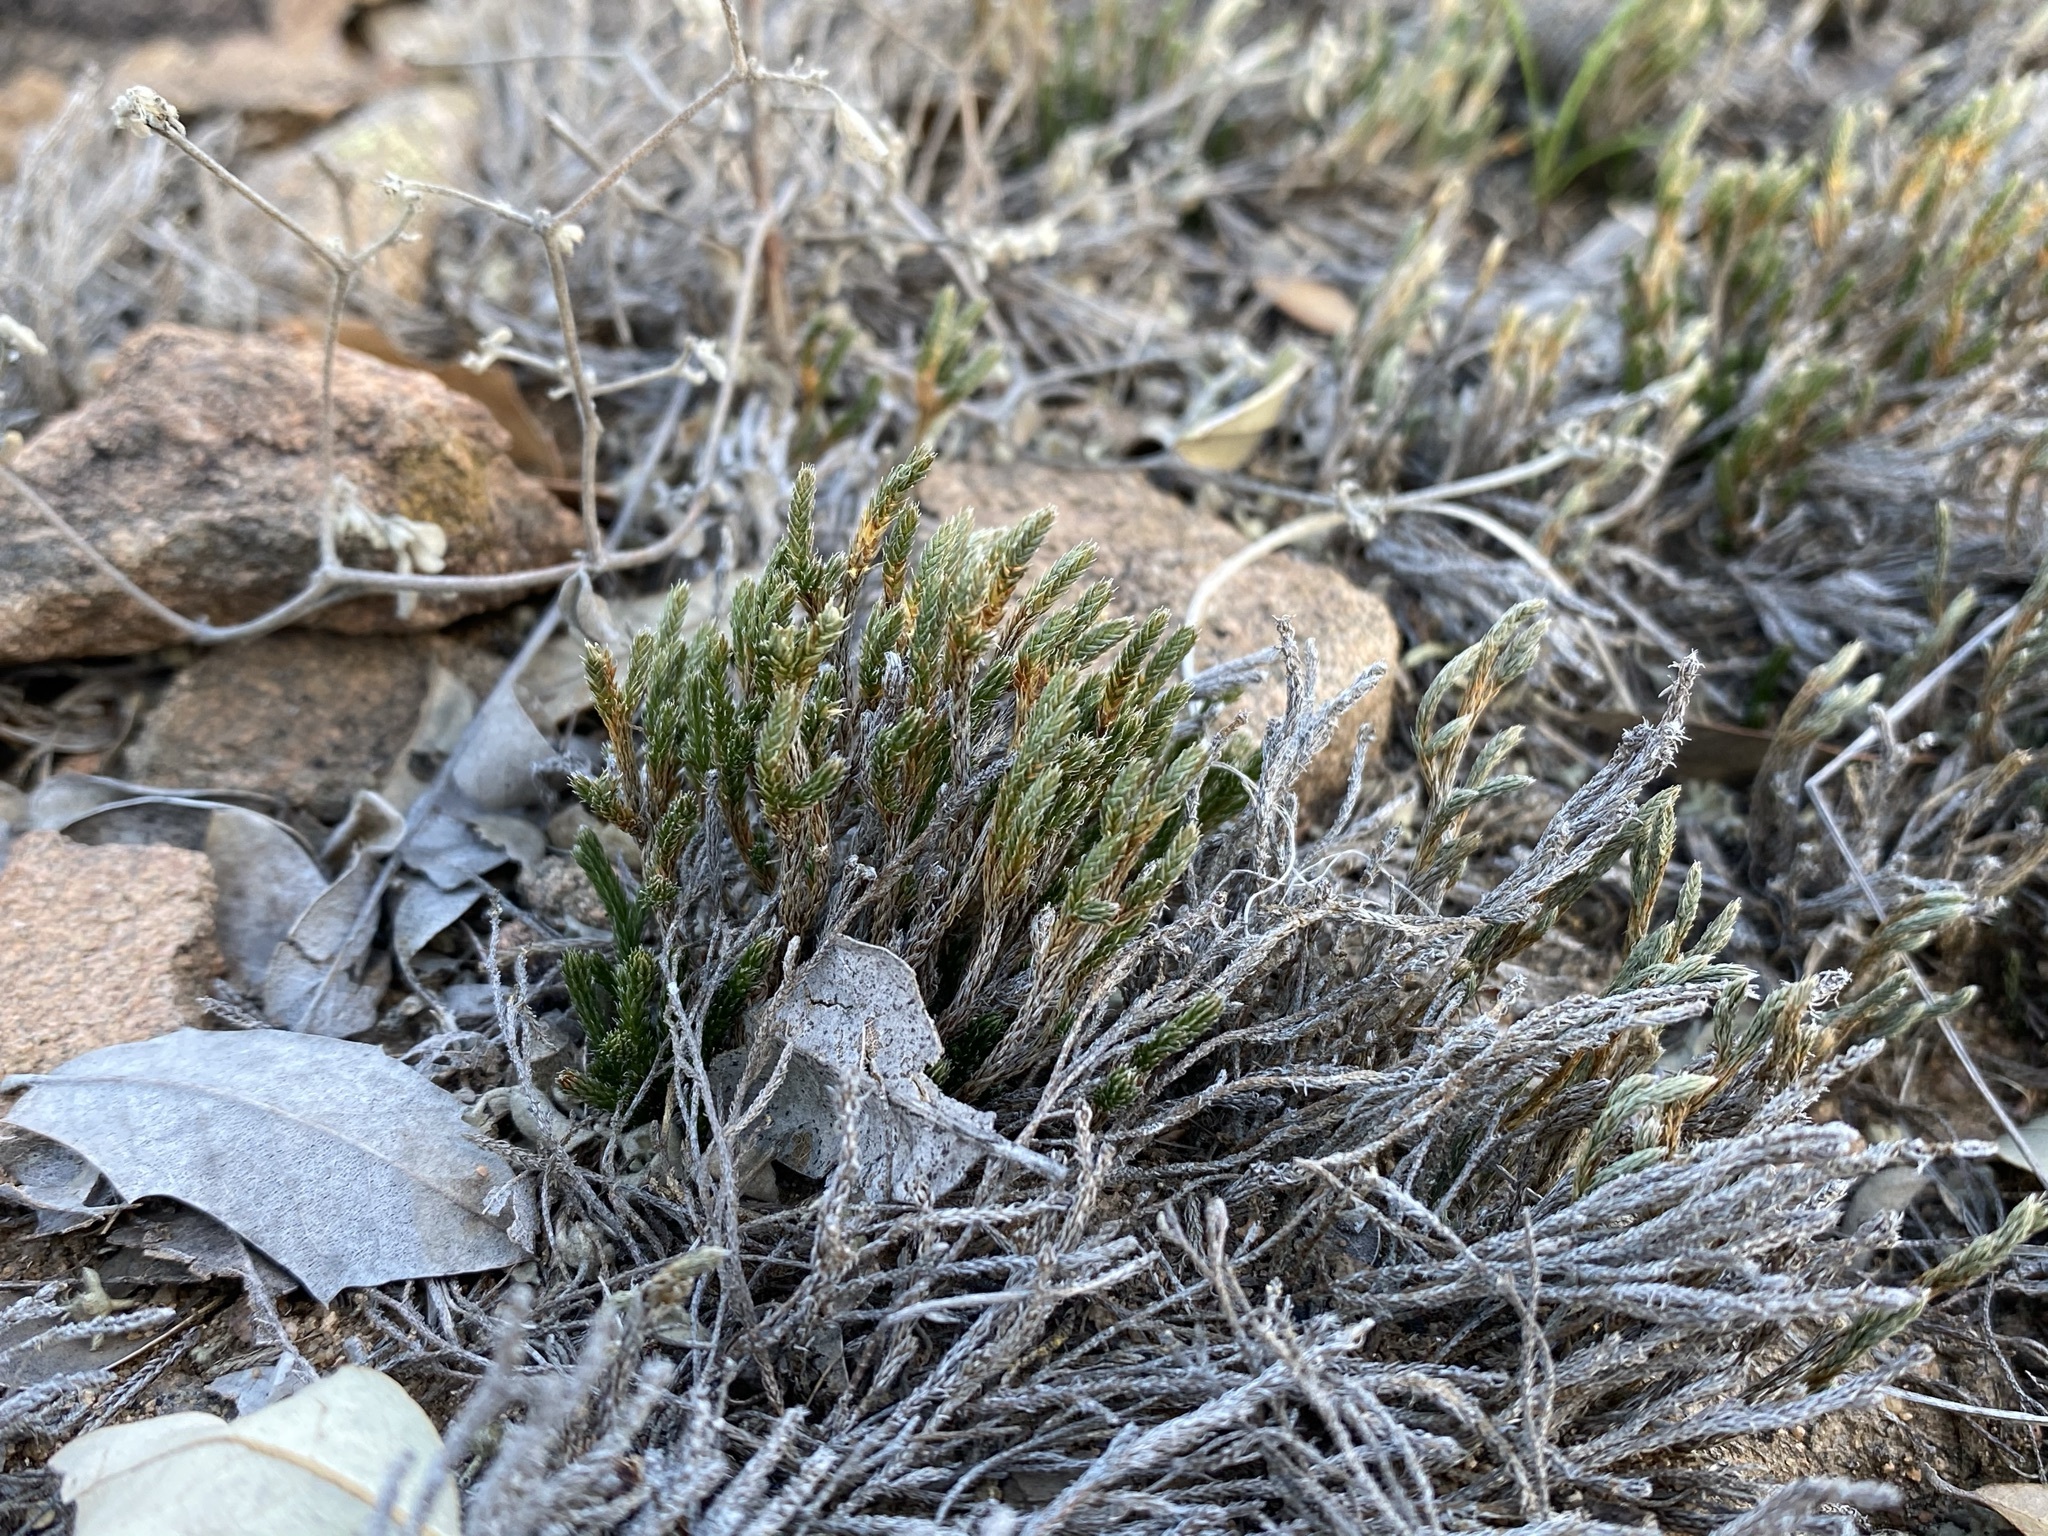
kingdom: Plantae
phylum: Tracheophyta
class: Lycopodiopsida
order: Selaginellales
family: Selaginellaceae
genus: Selaginella
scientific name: Selaginella corallina
